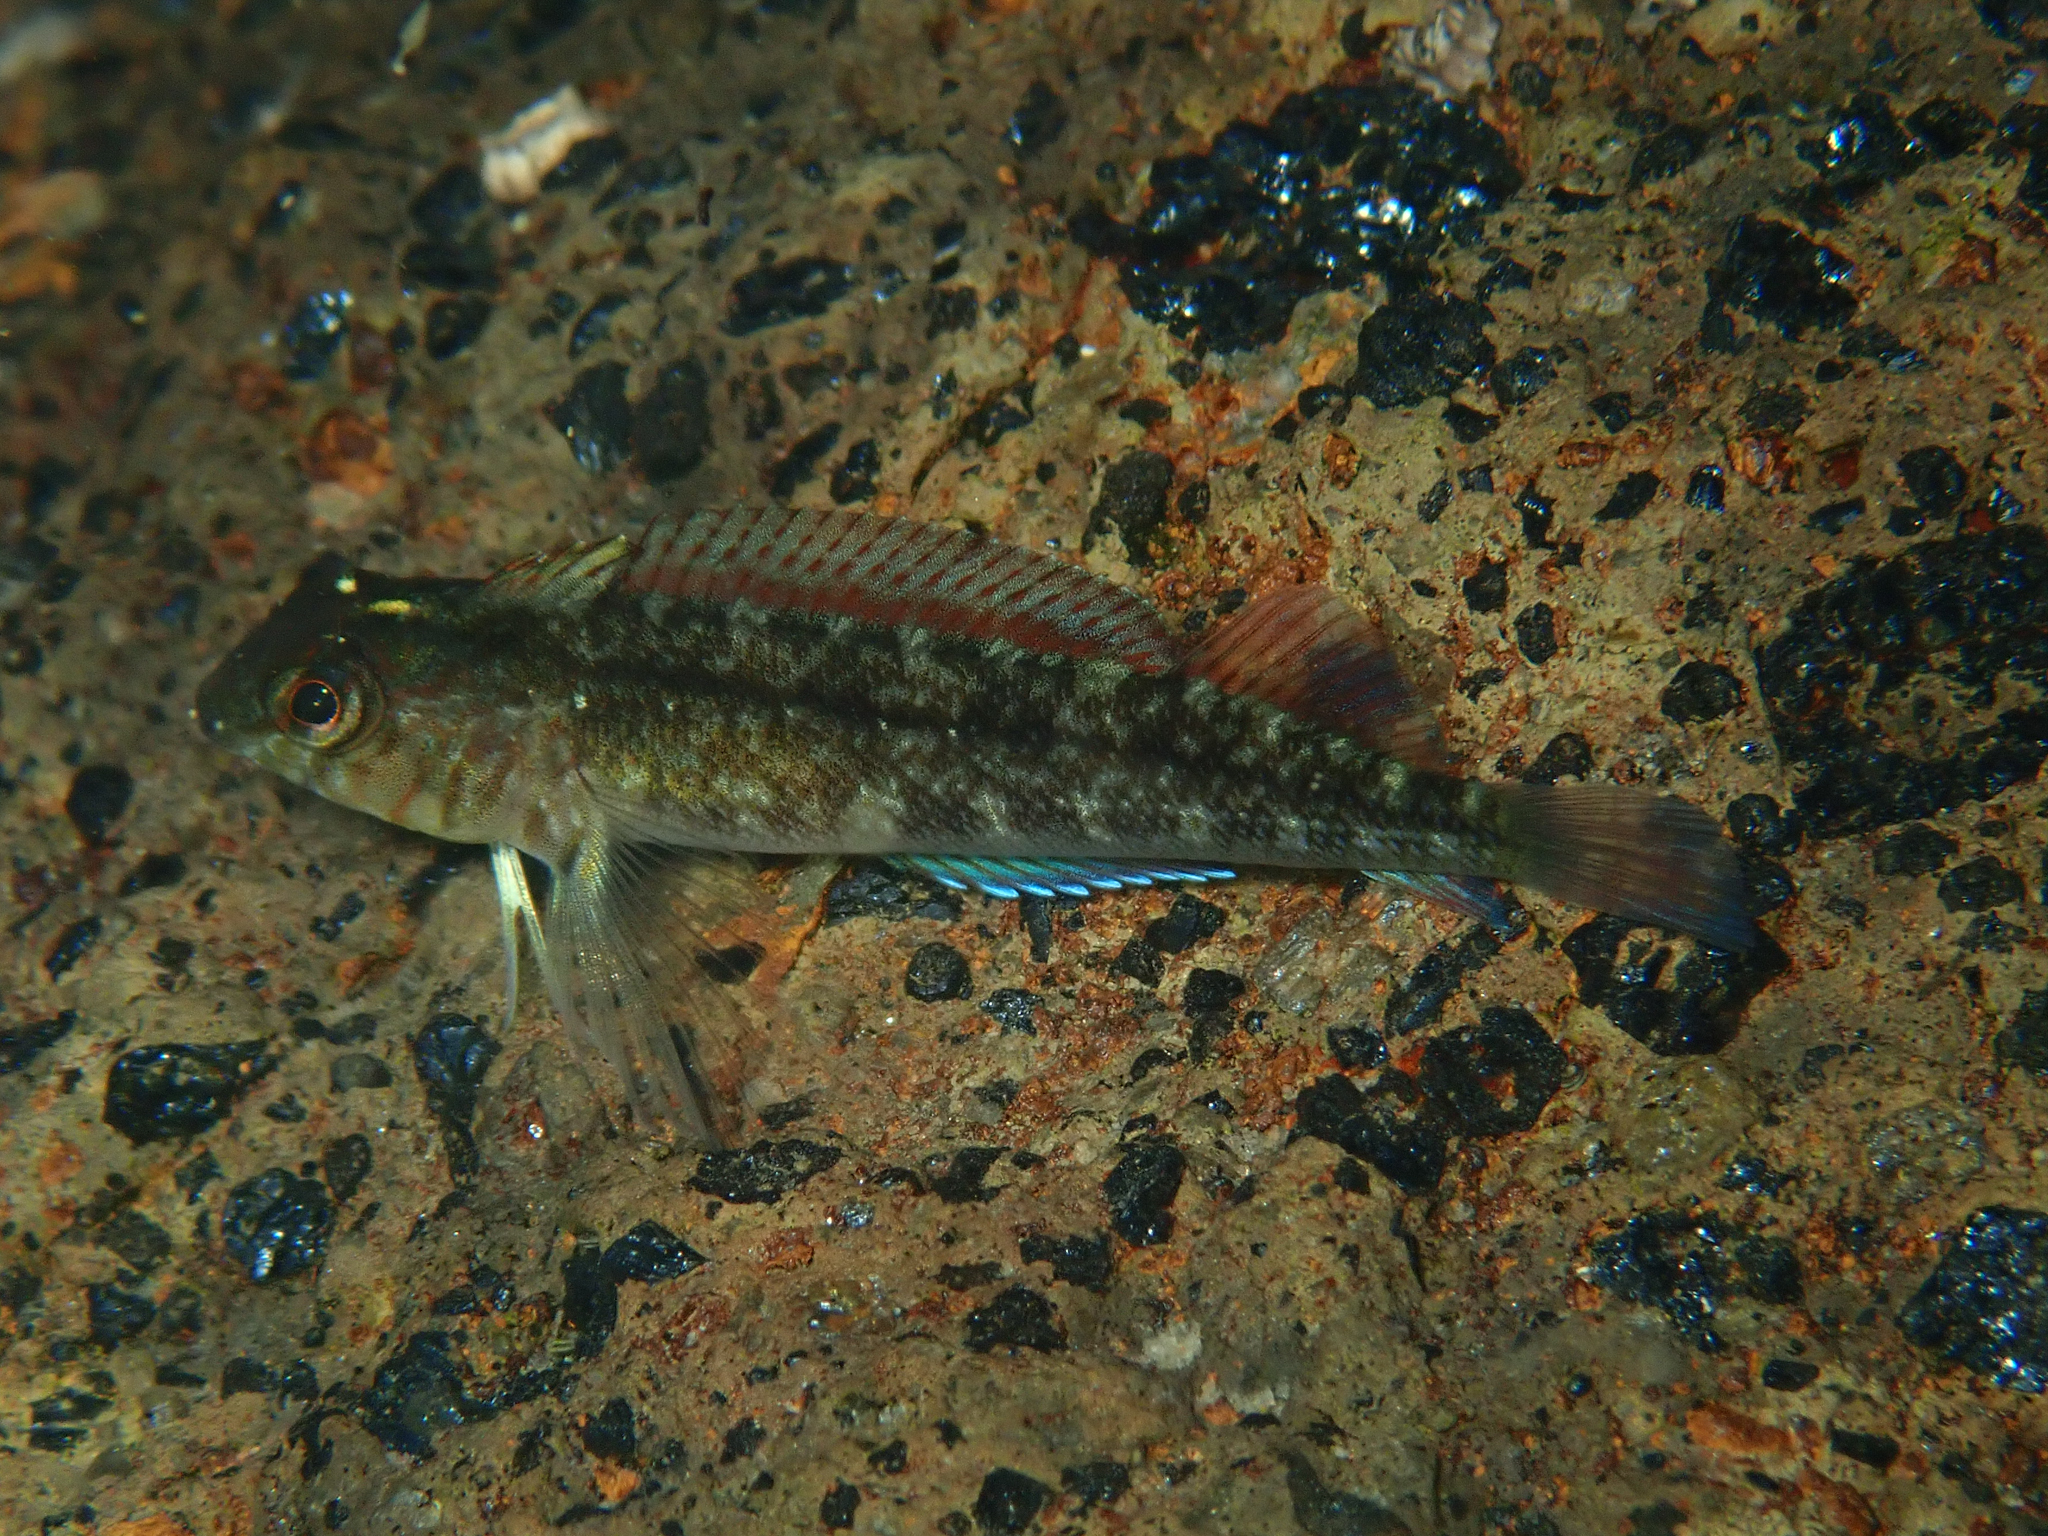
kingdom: Animalia
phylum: Chordata
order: Perciformes
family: Tripterygiidae
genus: Forsterygion
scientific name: Forsterygion lapillum
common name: Common triplefin
